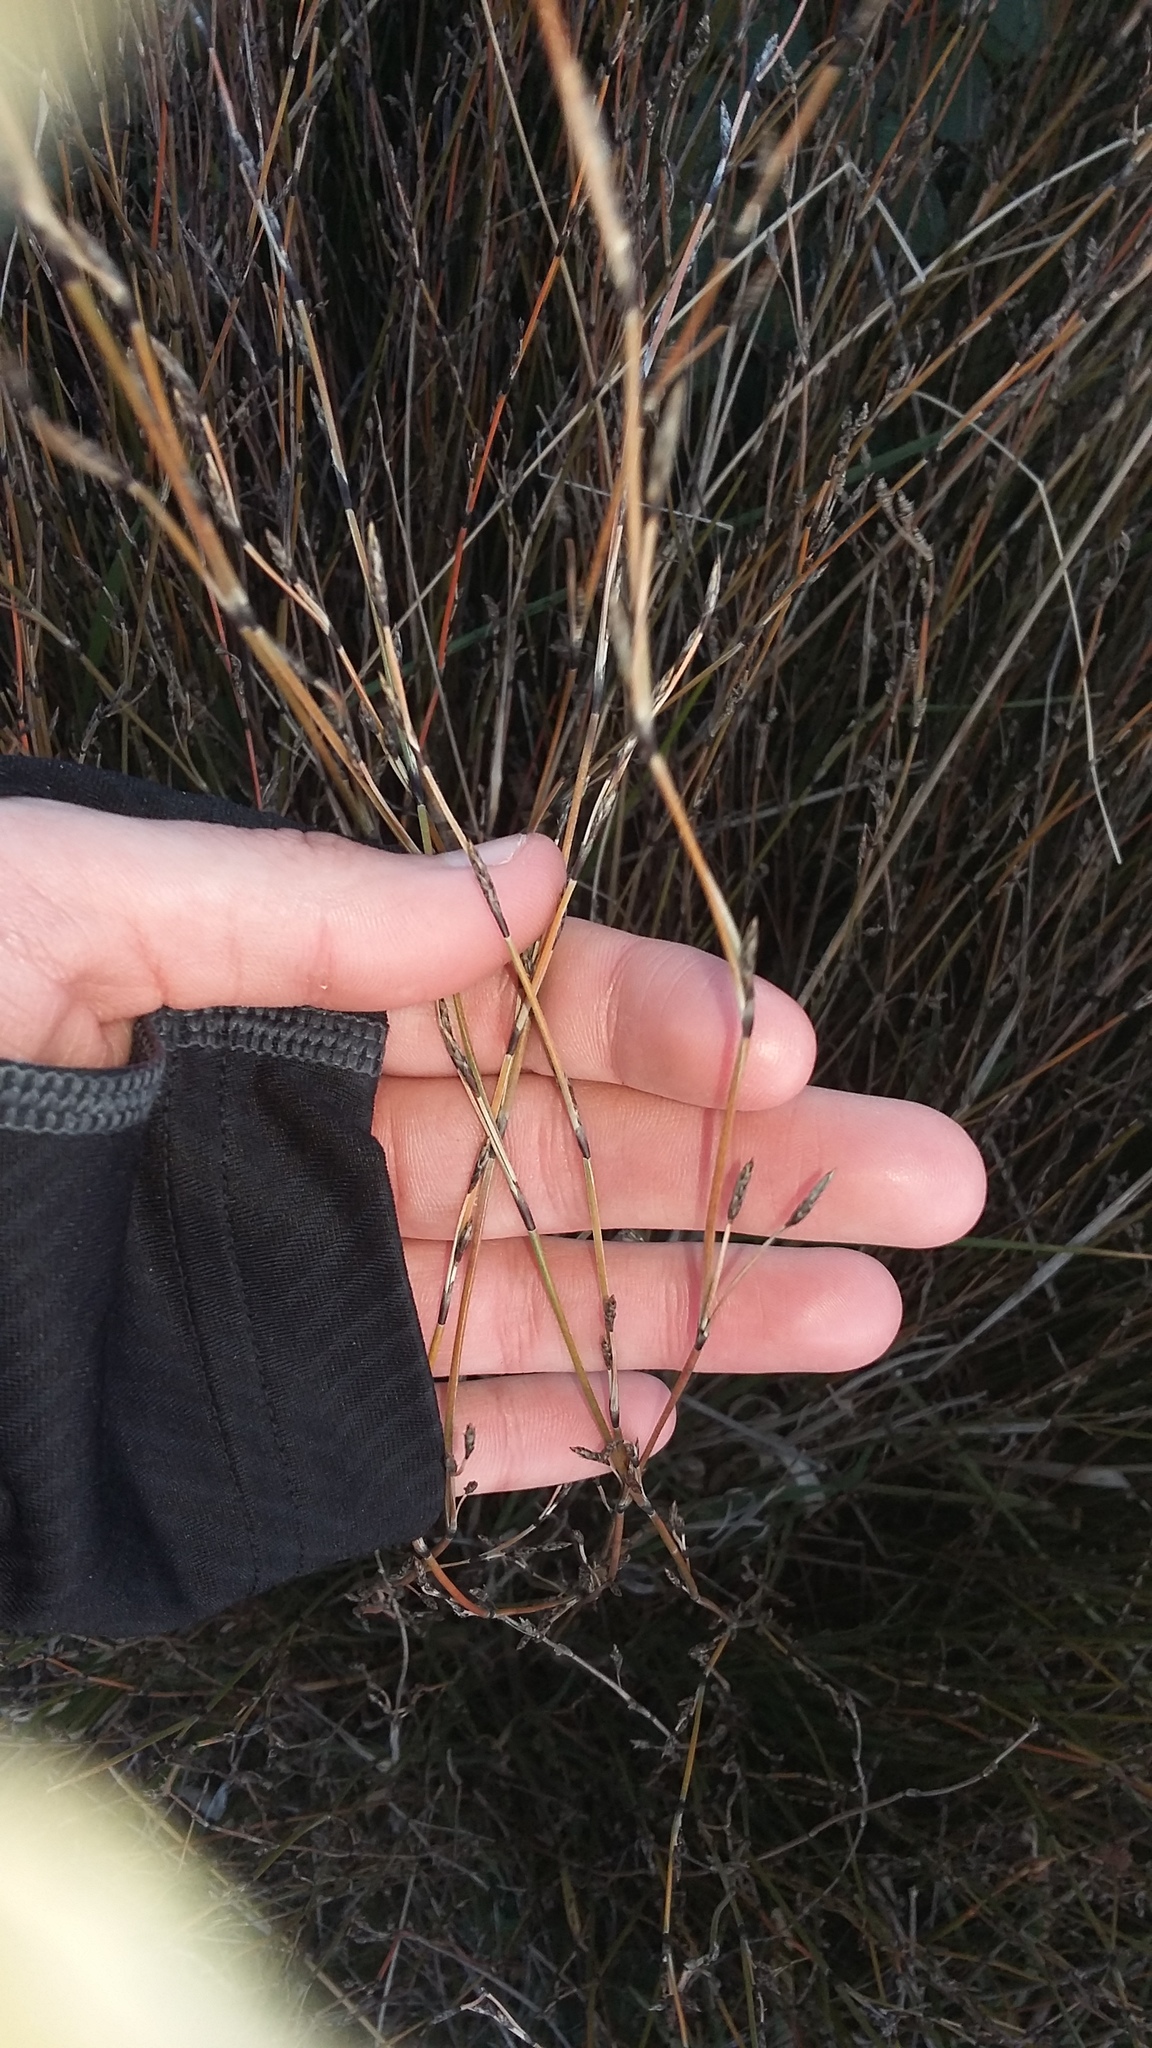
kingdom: Plantae
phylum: Tracheophyta
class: Liliopsida
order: Poales
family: Restionaceae
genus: Apodasmia
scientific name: Apodasmia similis
